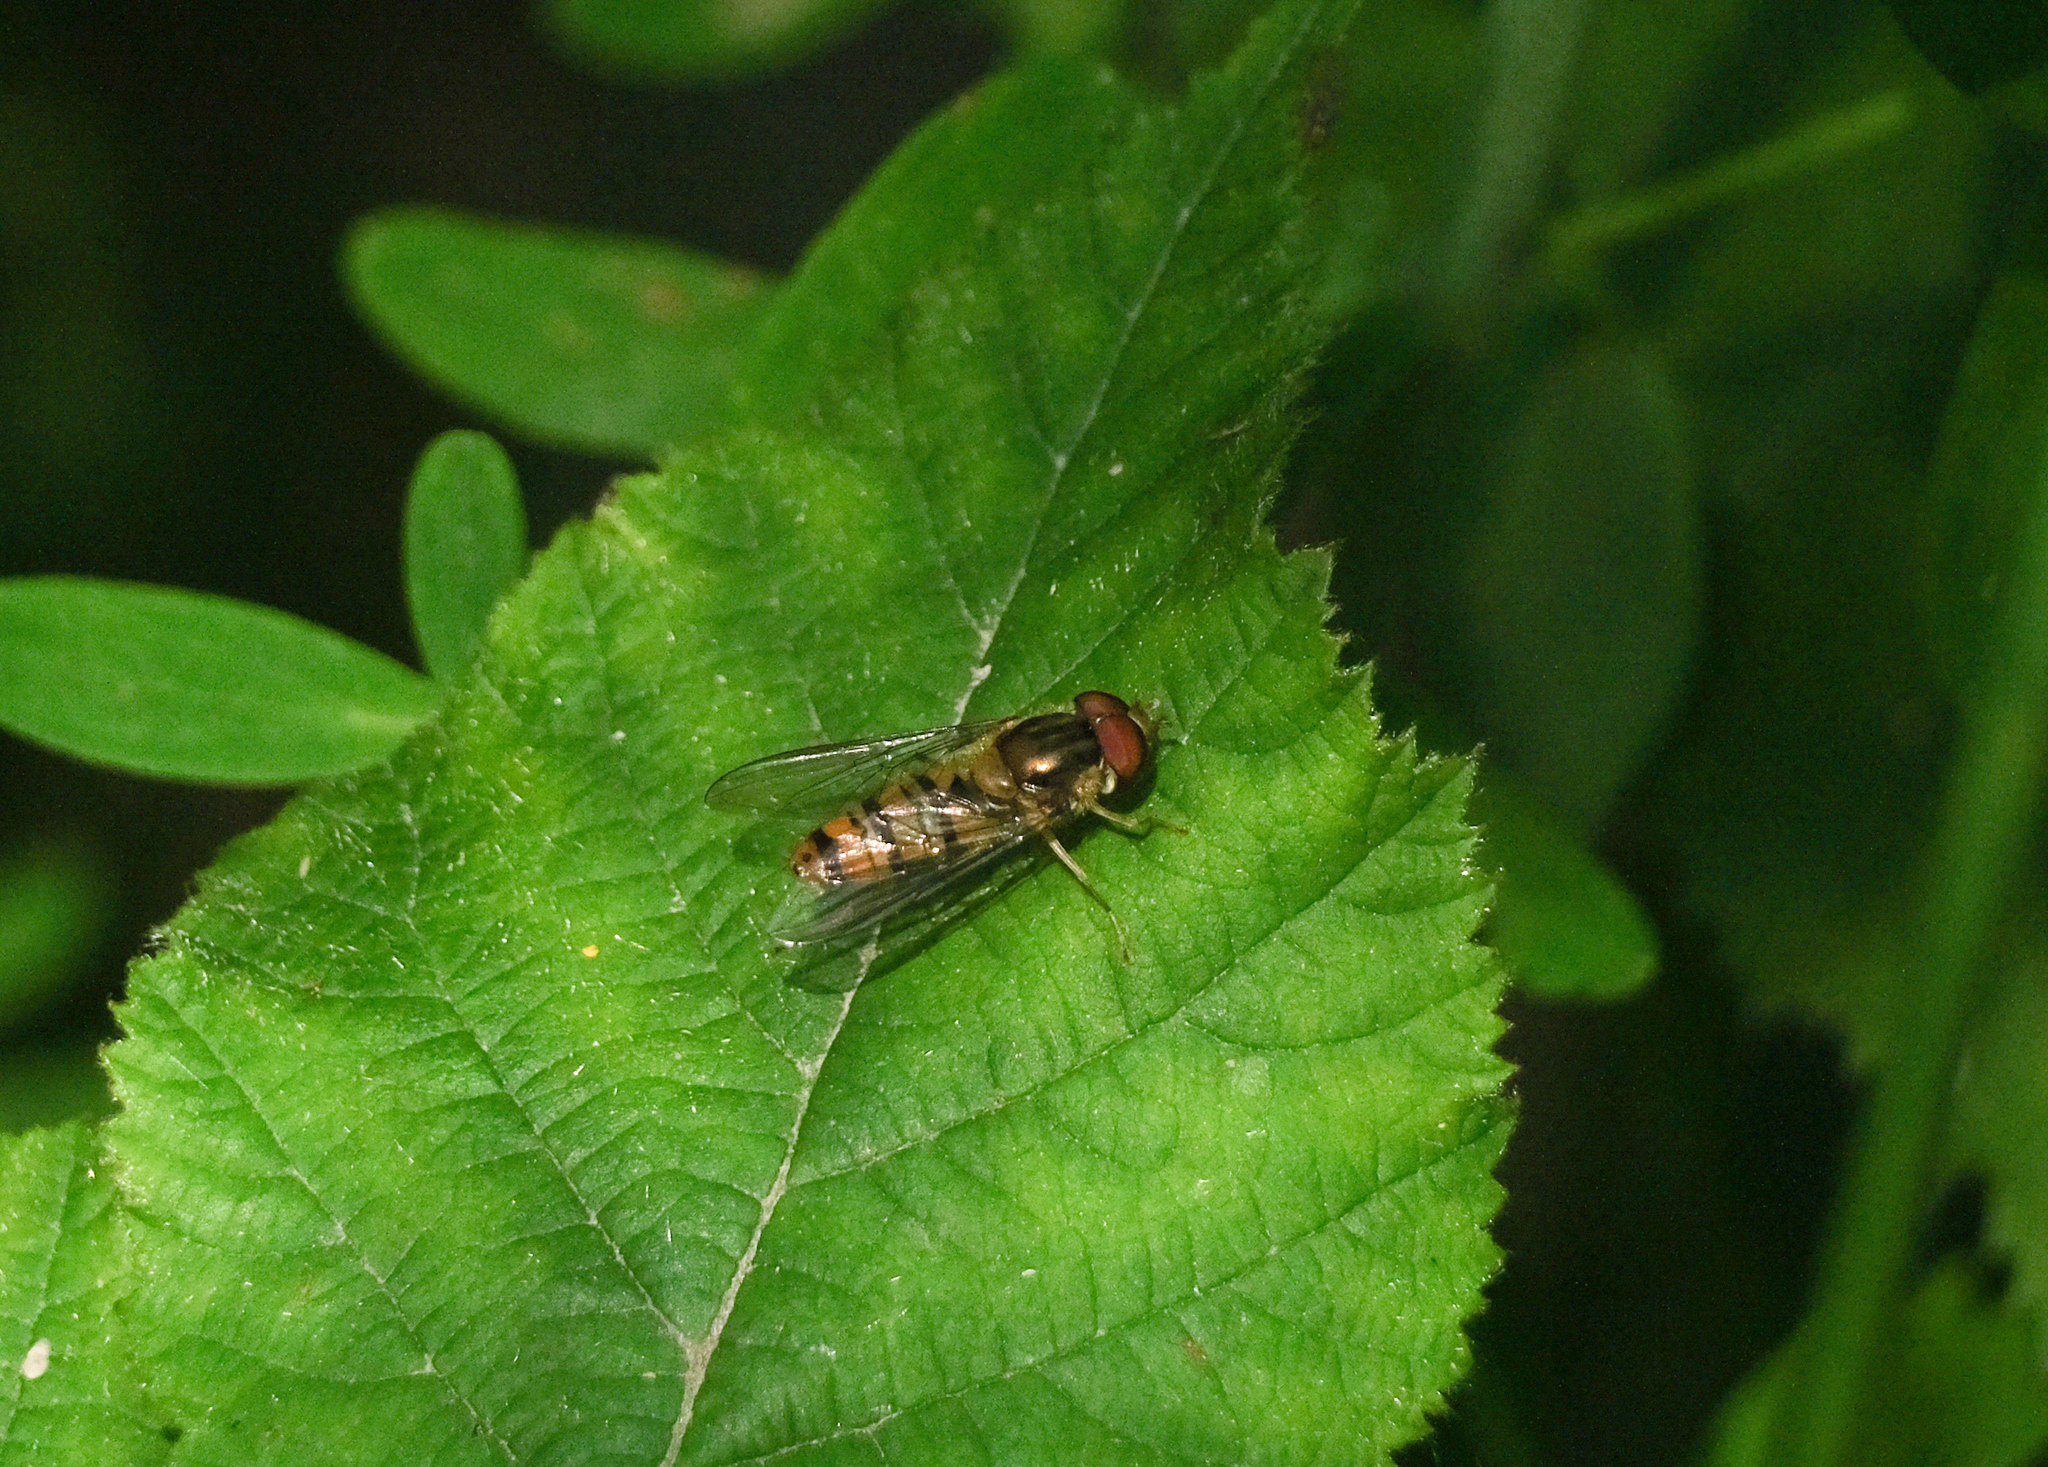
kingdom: Animalia
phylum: Arthropoda
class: Insecta
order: Diptera
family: Syrphidae
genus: Episyrphus
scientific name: Episyrphus balteatus
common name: Marmalade hoverfly
